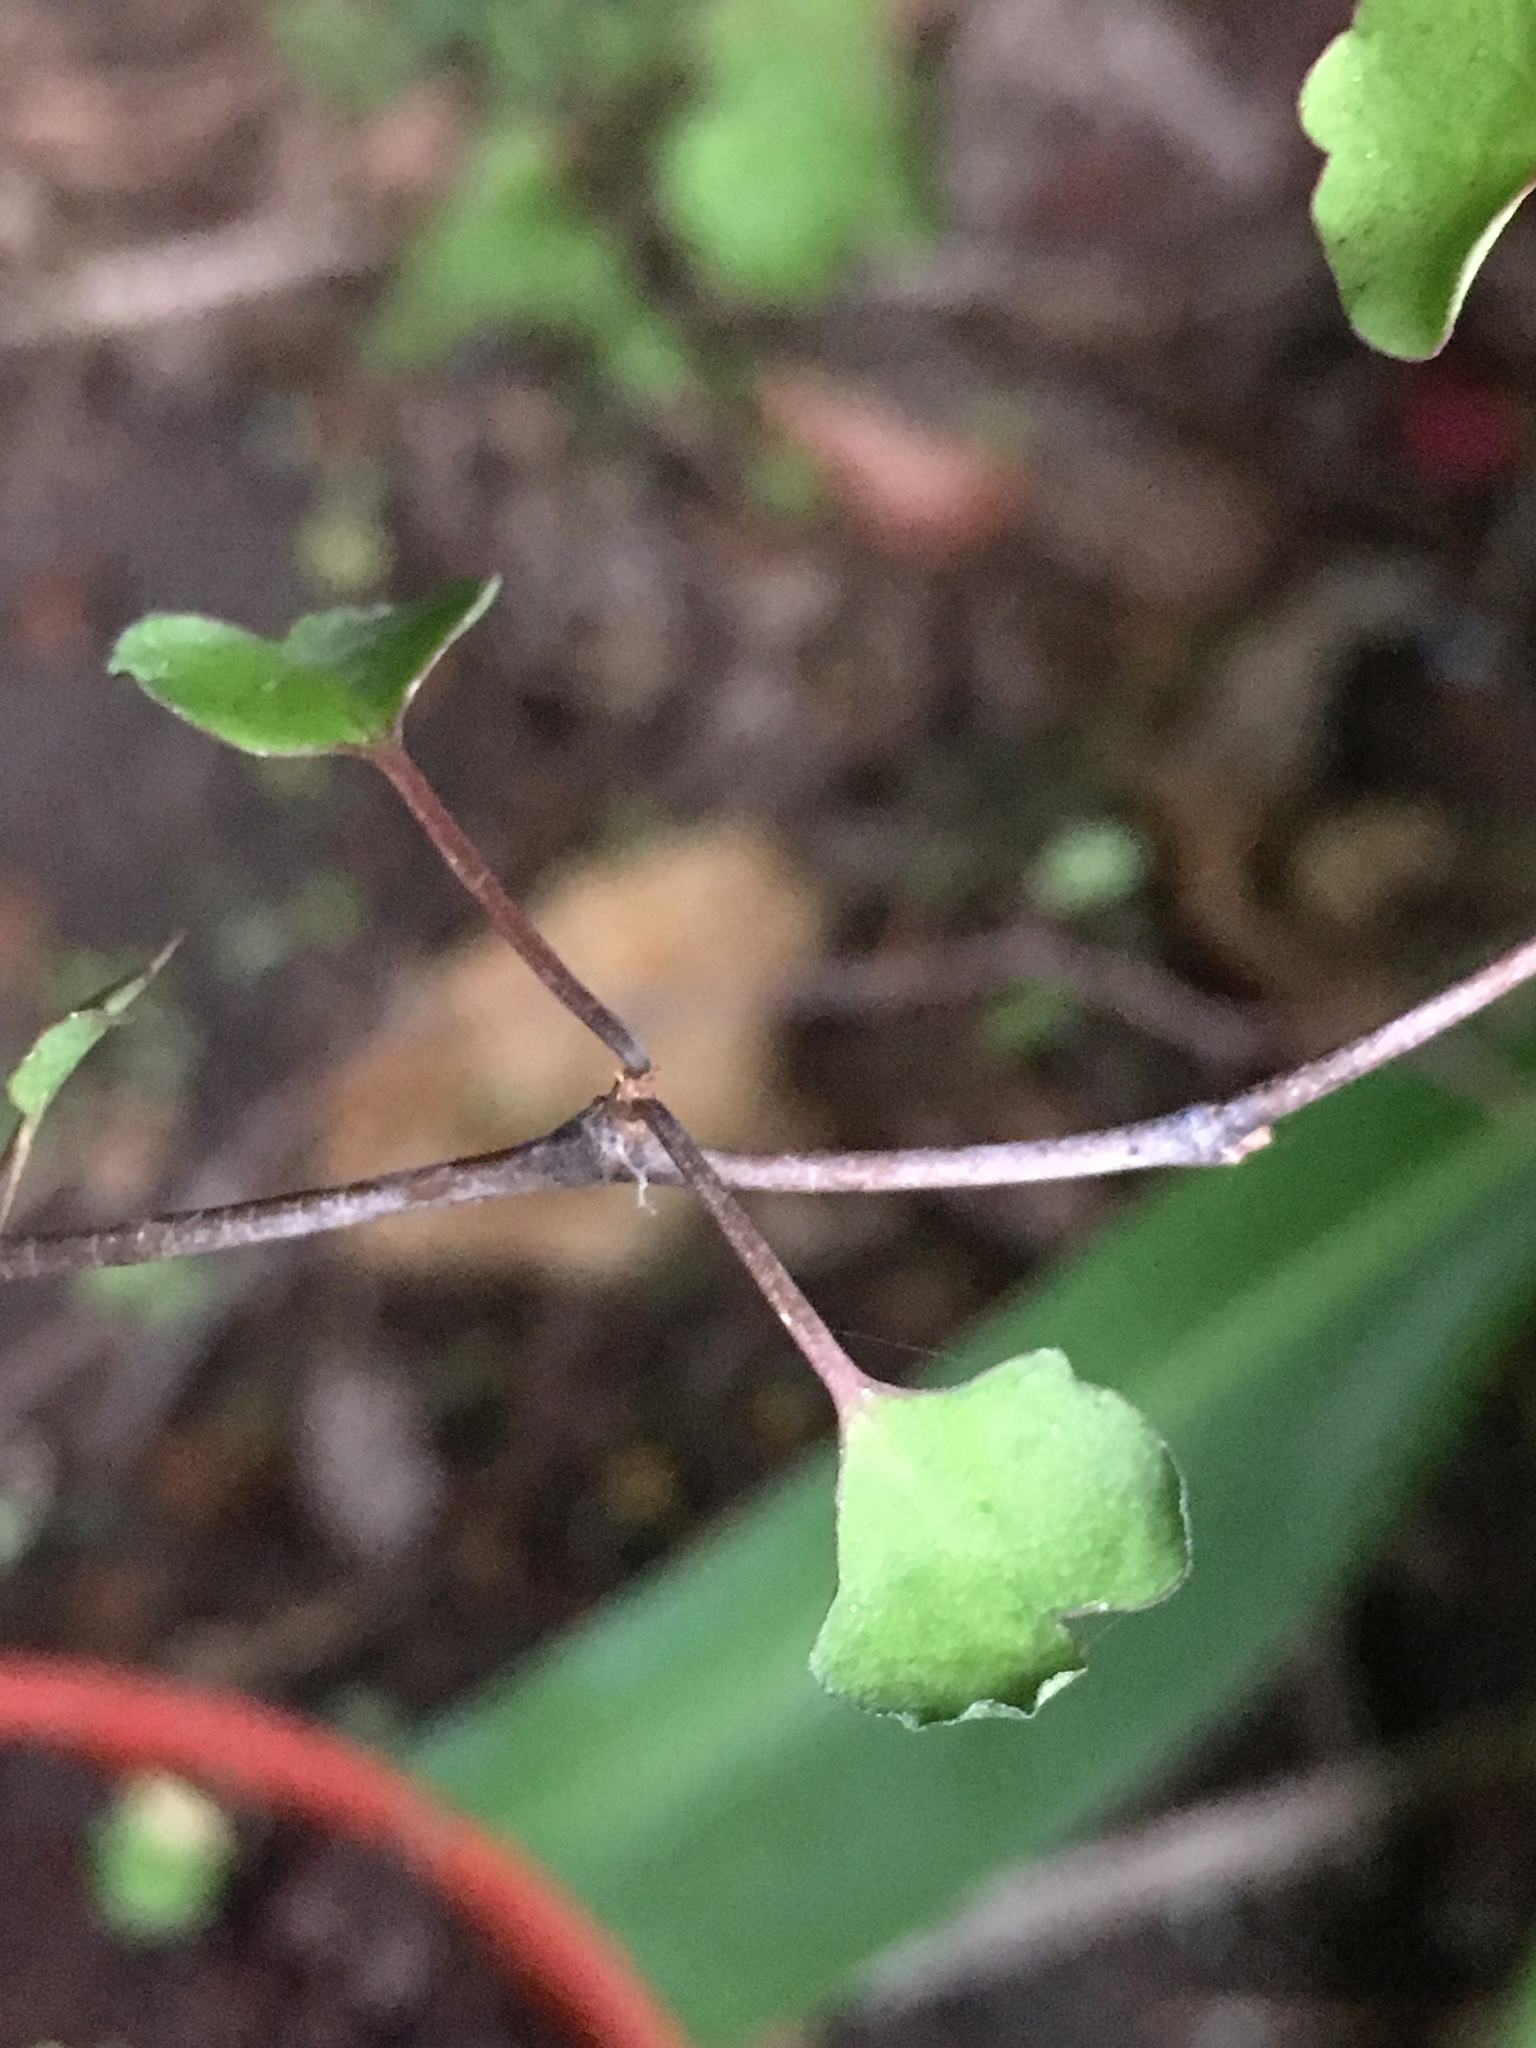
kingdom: Plantae
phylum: Tracheophyta
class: Magnoliopsida
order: Caryophyllales
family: Polygonaceae
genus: Muehlenbeckia
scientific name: Muehlenbeckia astonii
